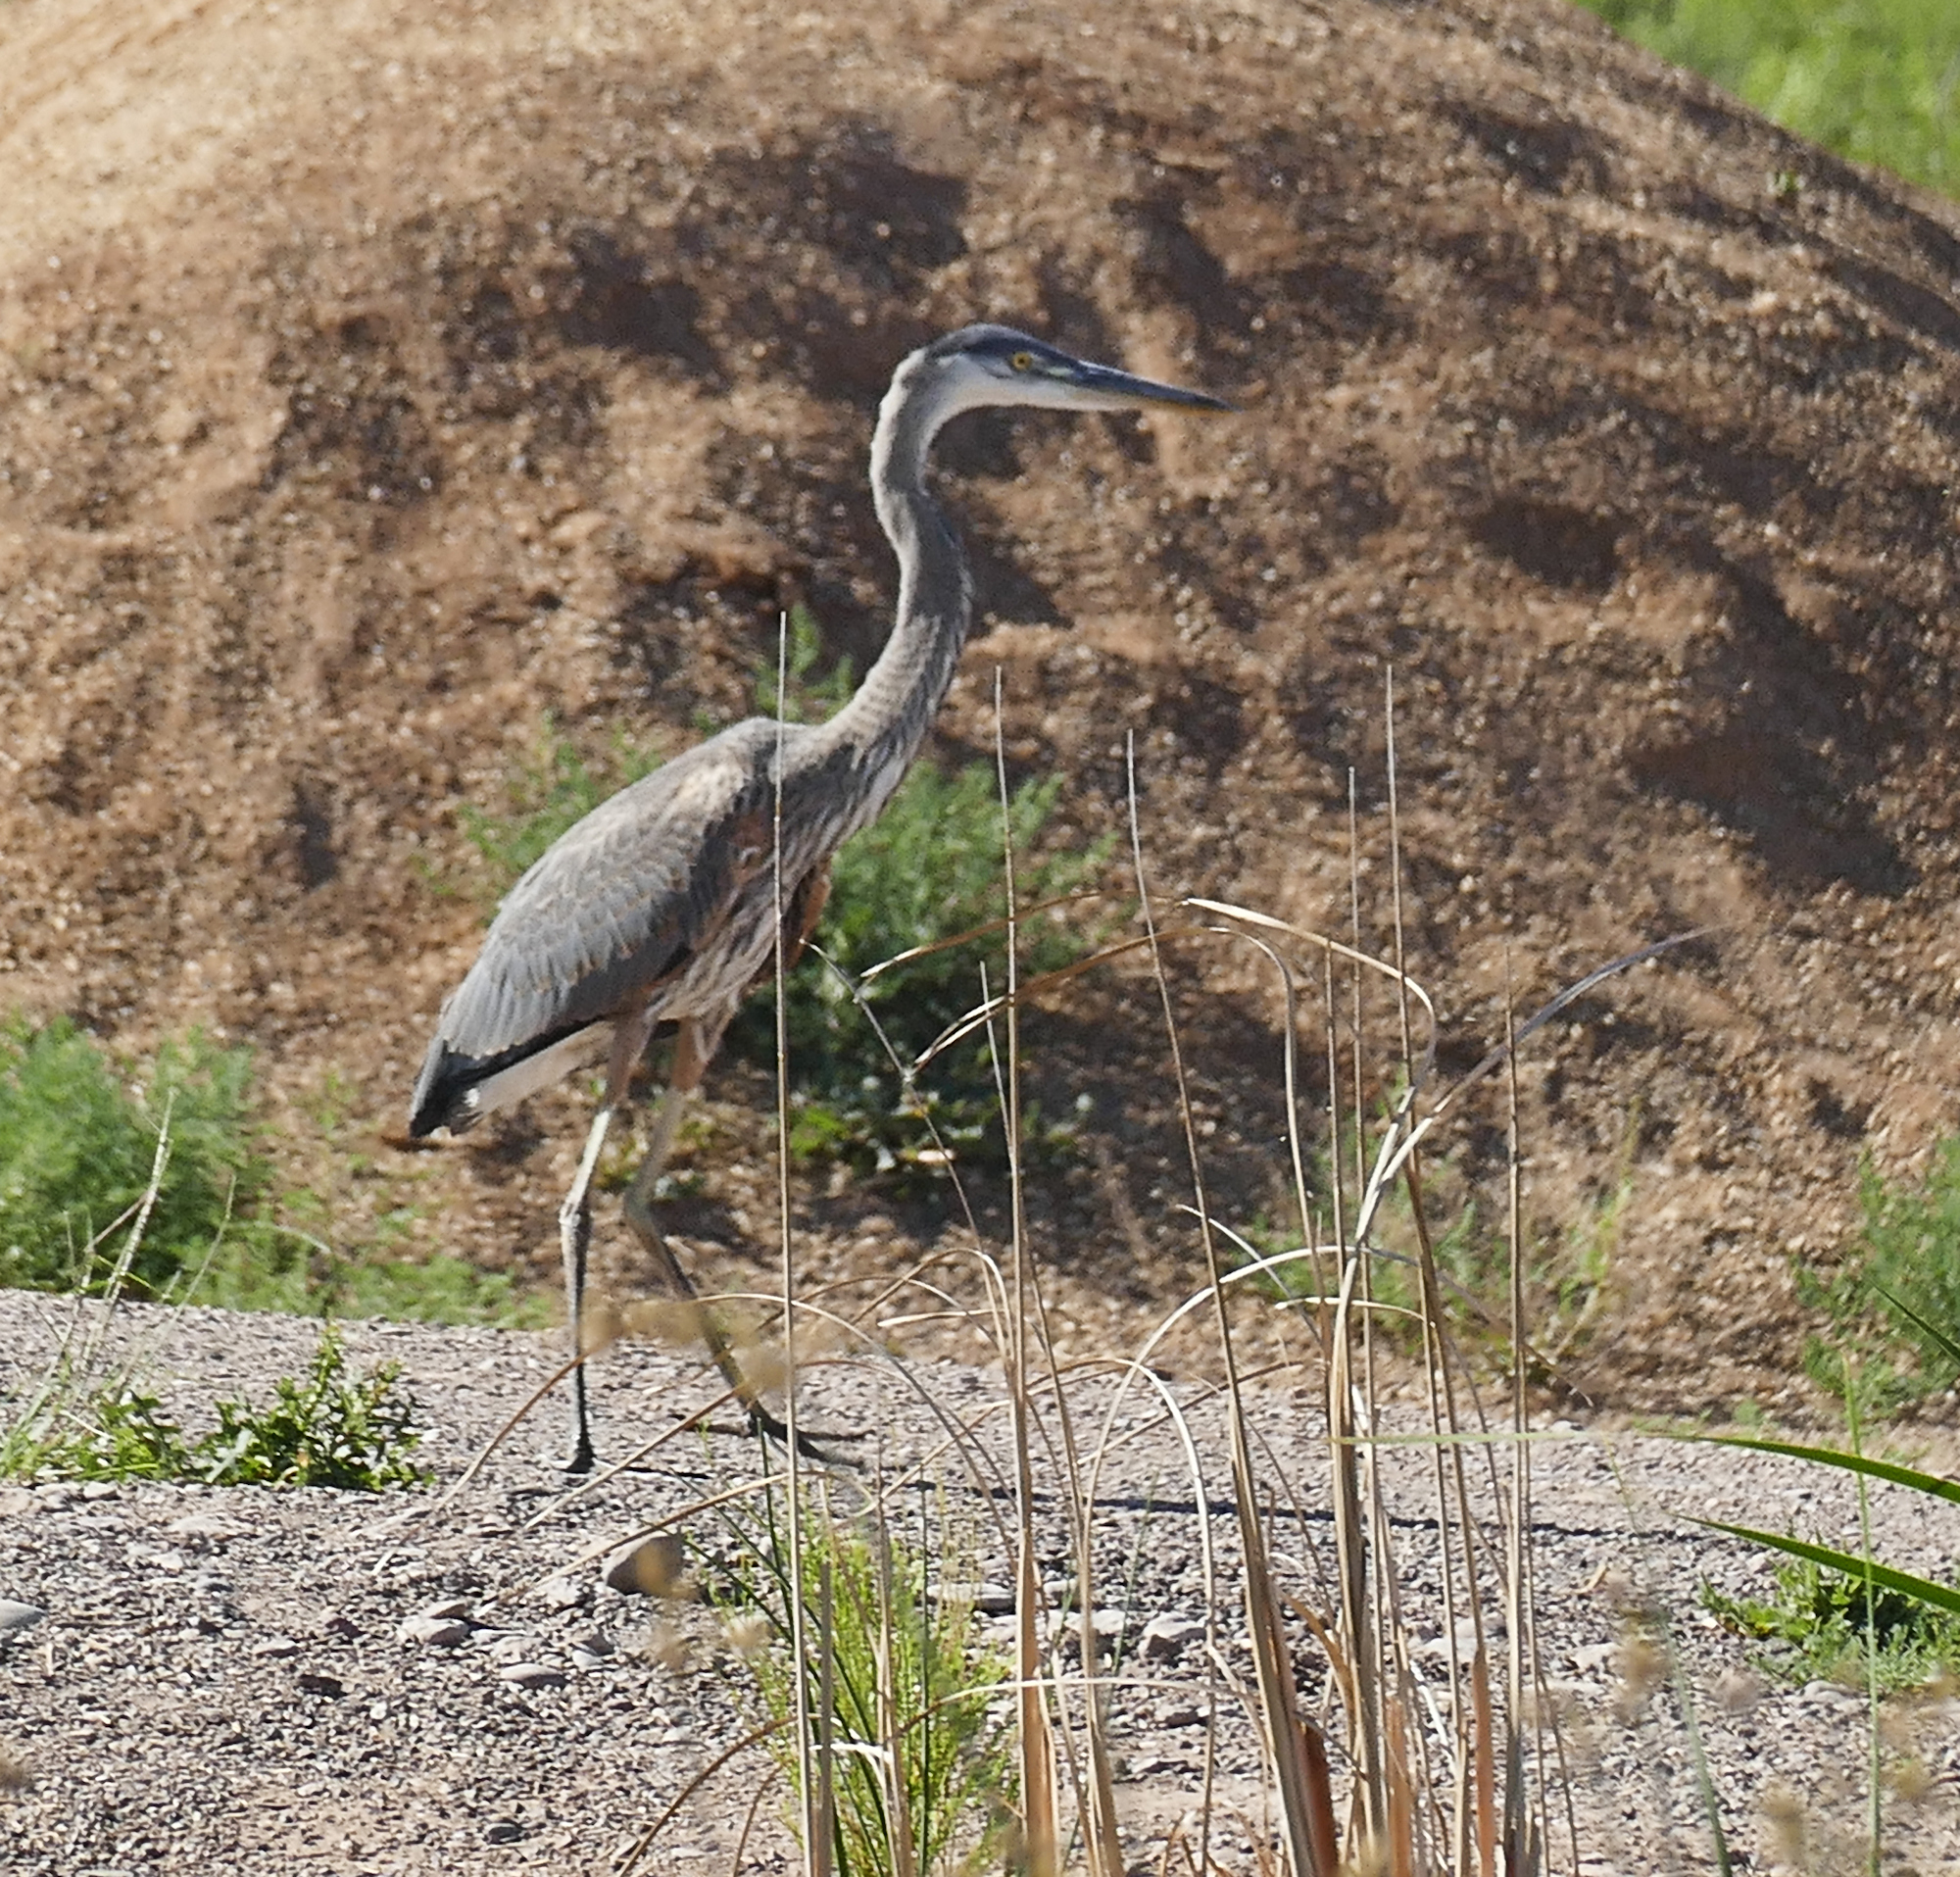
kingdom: Animalia
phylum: Chordata
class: Aves
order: Pelecaniformes
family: Ardeidae
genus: Ardea
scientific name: Ardea herodias
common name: Great blue heron
